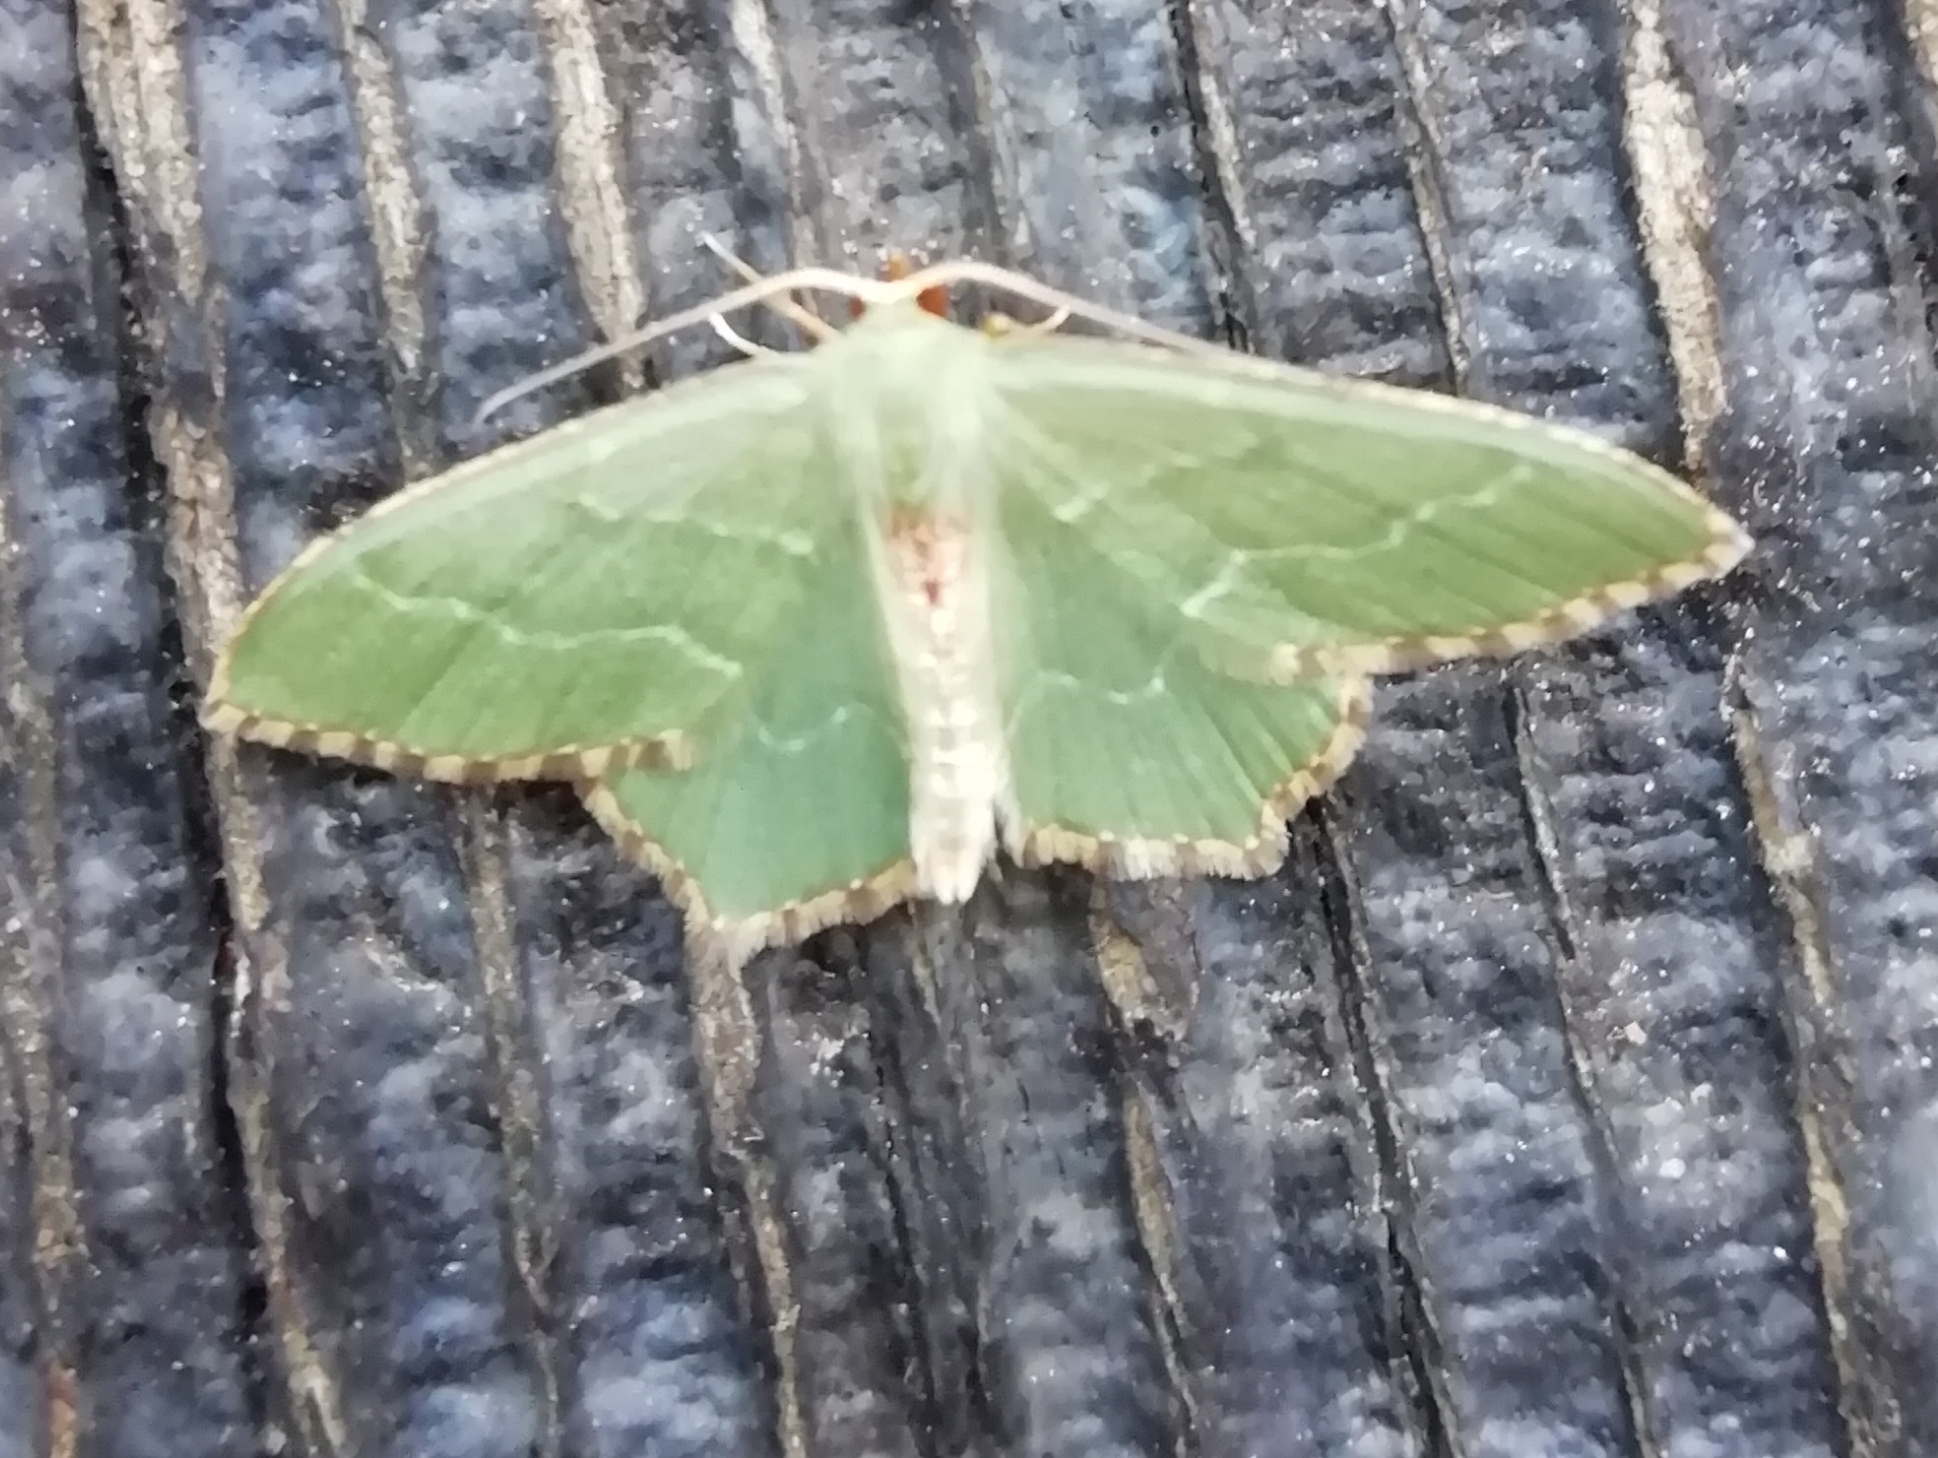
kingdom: Animalia
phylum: Arthropoda
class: Insecta
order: Lepidoptera
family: Geometridae
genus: Hemithea
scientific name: Hemithea aestivaria
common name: Common emerald
